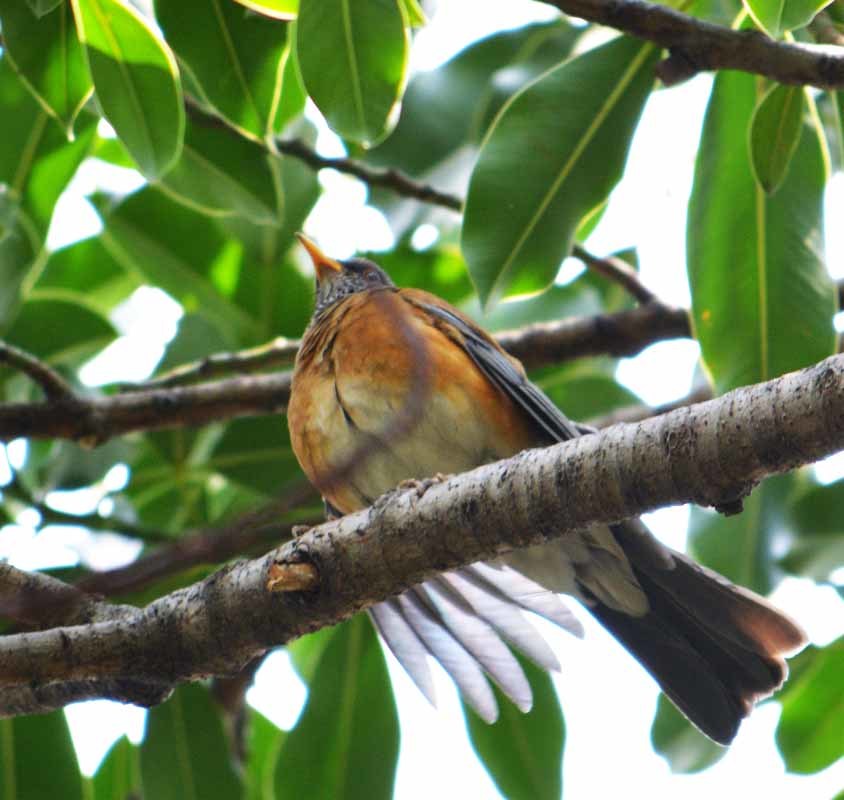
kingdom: Animalia
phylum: Chordata
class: Aves
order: Passeriformes
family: Turdidae
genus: Turdus
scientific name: Turdus rufopalliatus
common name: Rufous-backed robin
